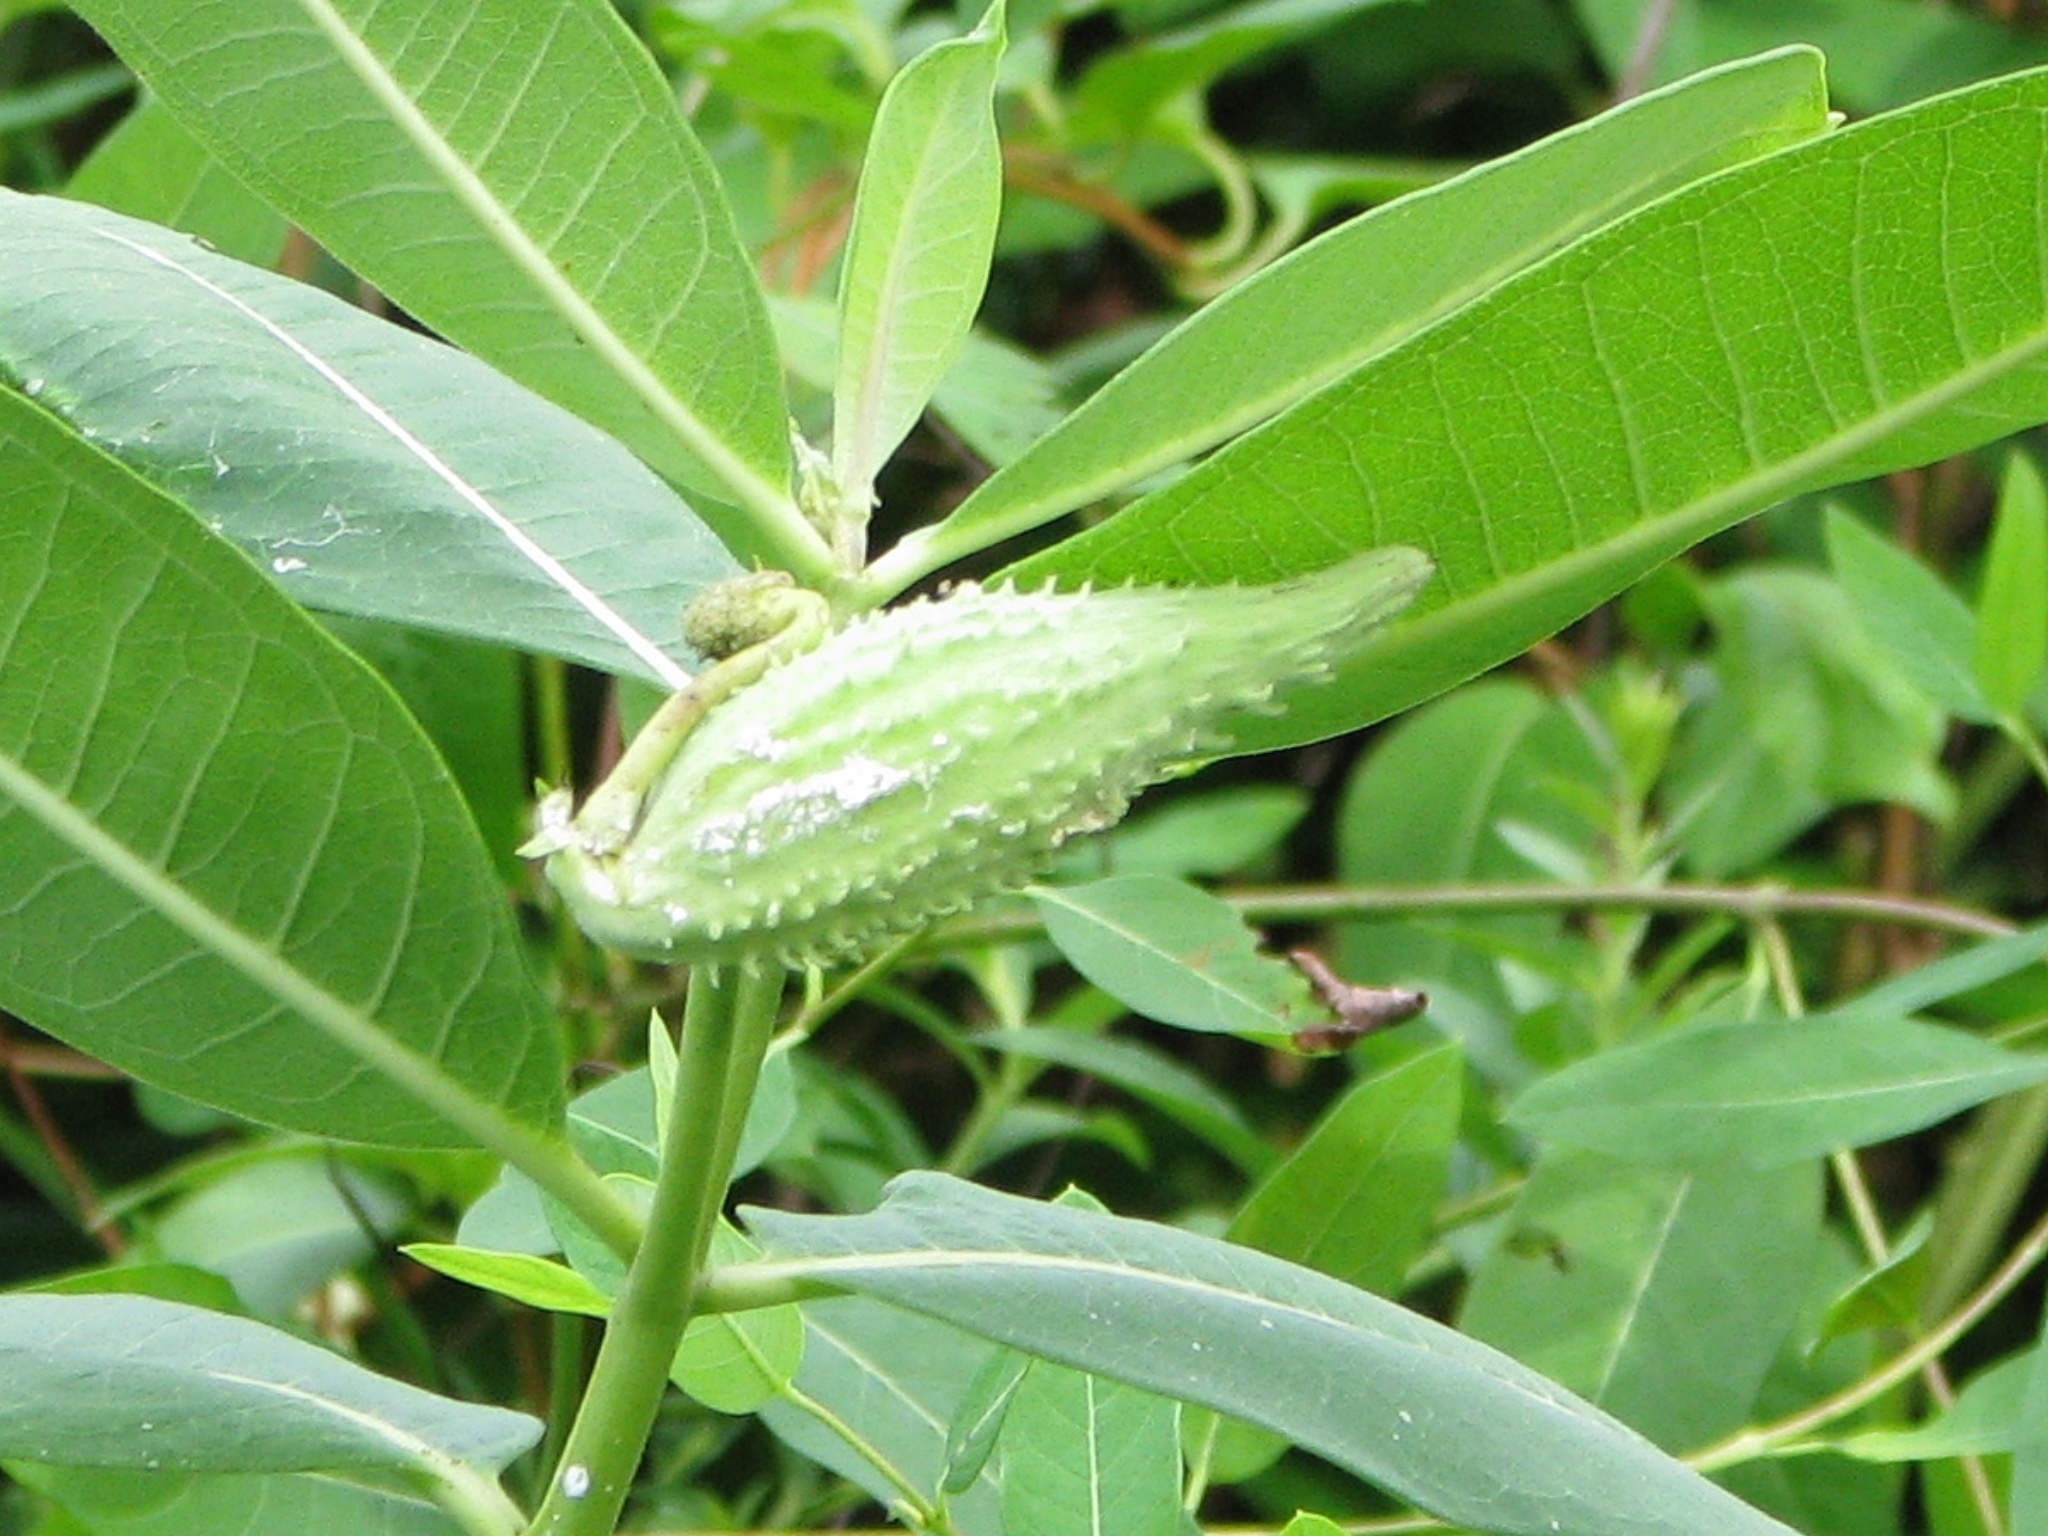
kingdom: Plantae
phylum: Tracheophyta
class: Magnoliopsida
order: Gentianales
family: Apocynaceae
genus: Asclepias
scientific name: Asclepias syriaca
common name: Common milkweed
